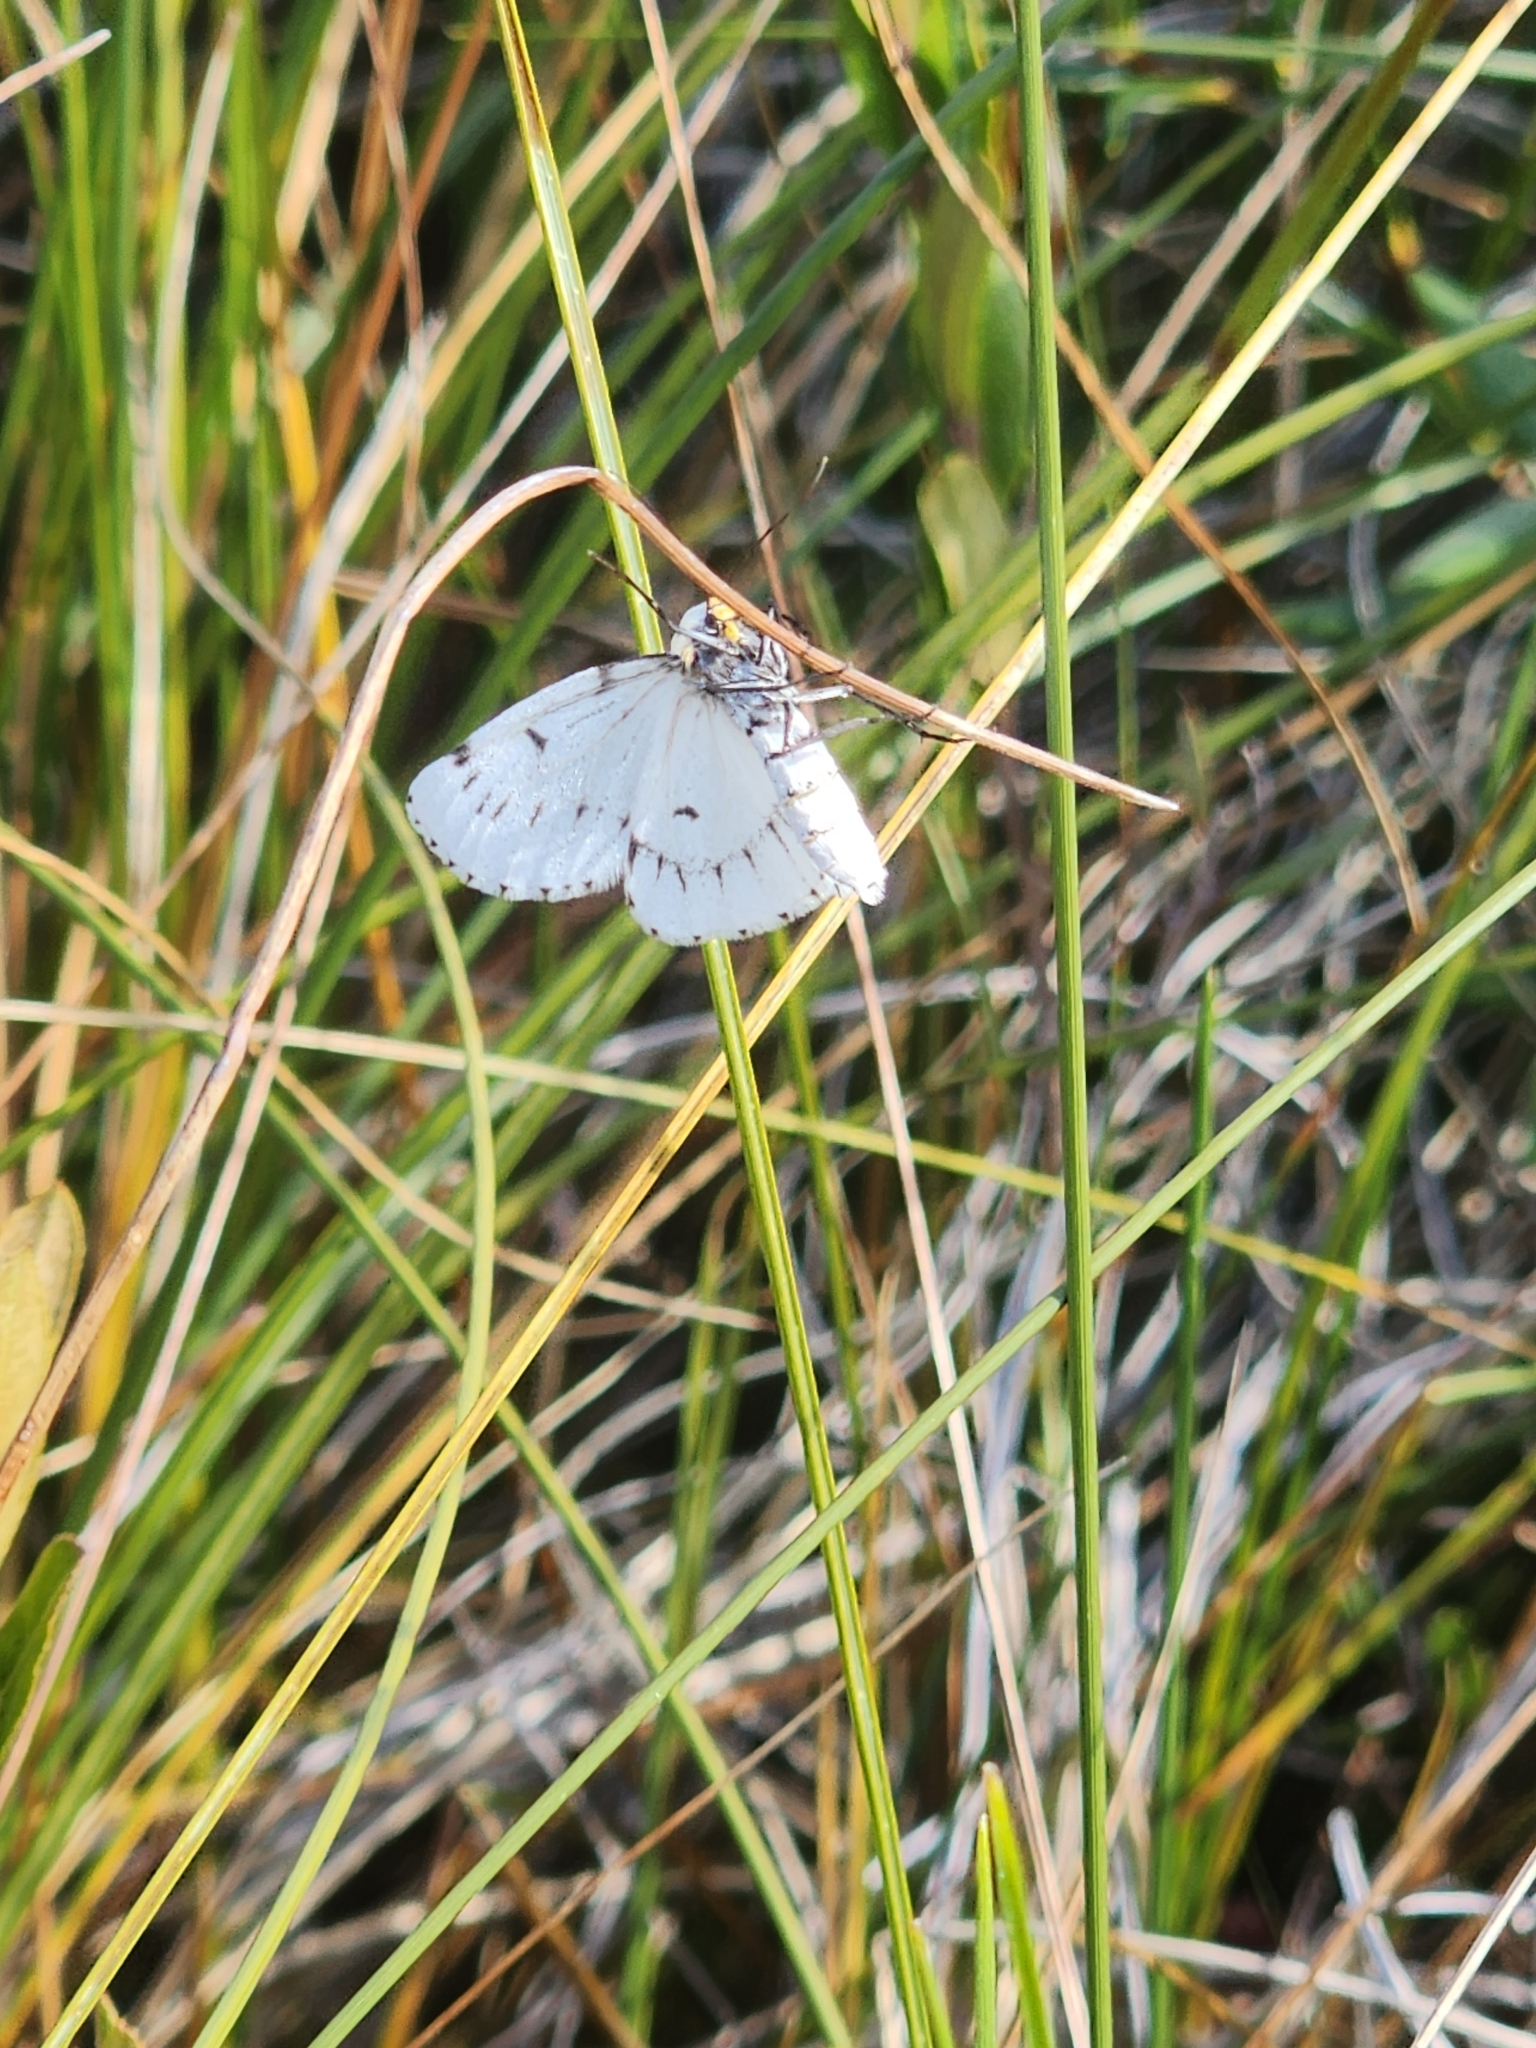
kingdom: Animalia
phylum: Arthropoda
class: Insecta
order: Lepidoptera
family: Geometridae
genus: Cingilia
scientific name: Cingilia catenaria
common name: Chain-dotted geometer
